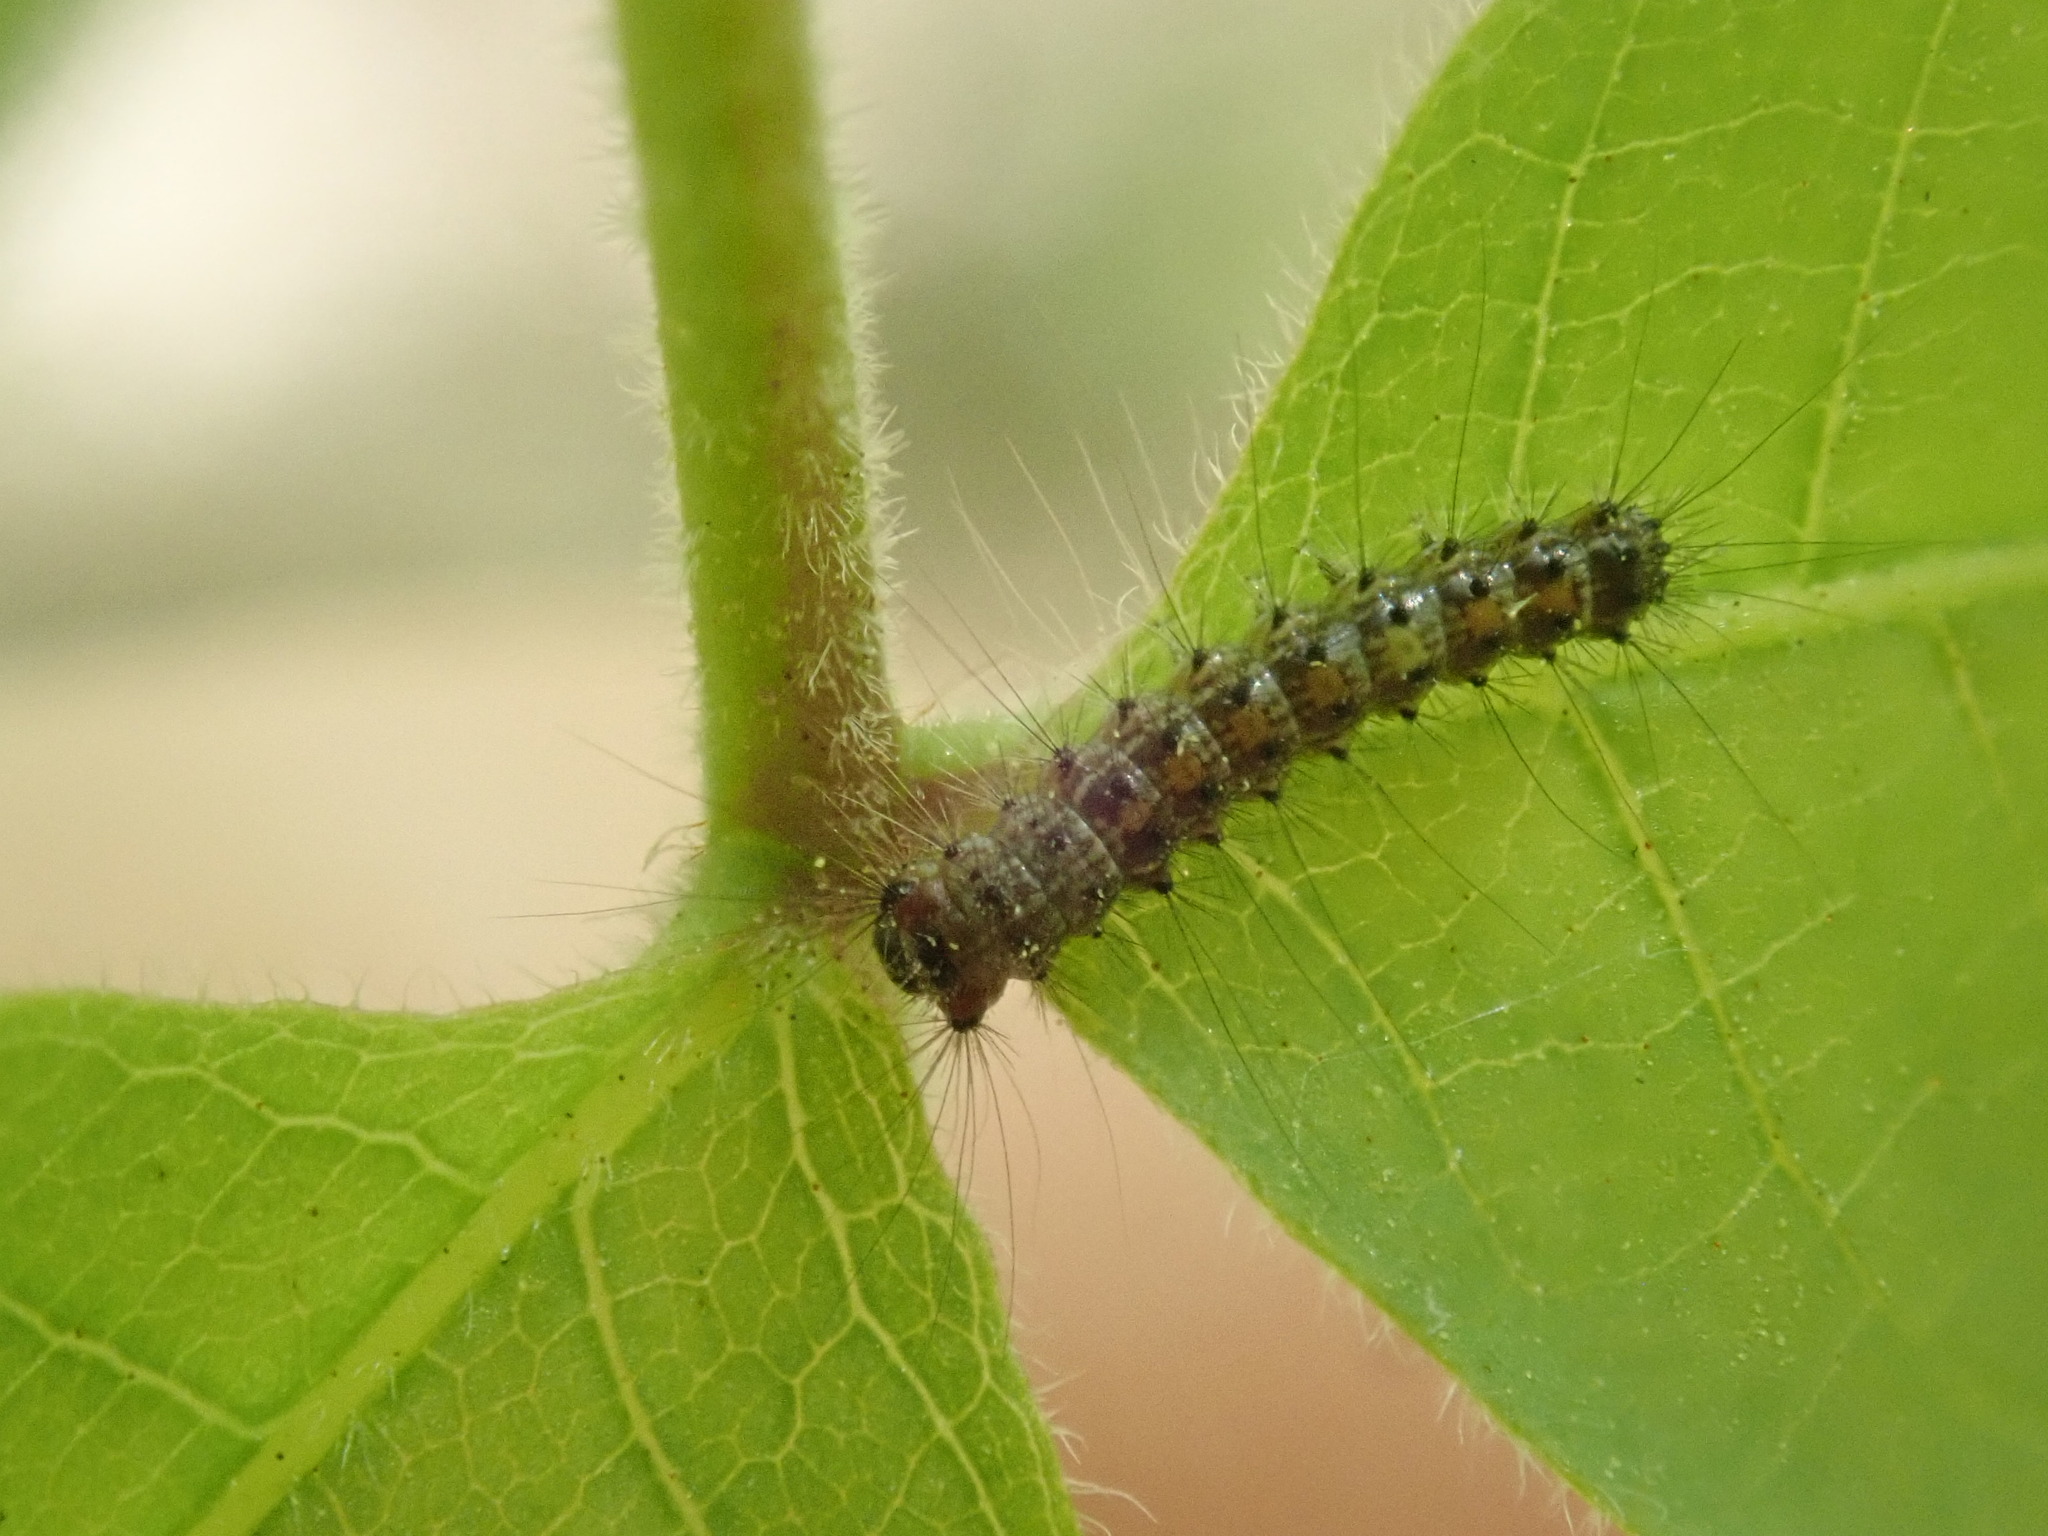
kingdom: Animalia
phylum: Arthropoda
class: Insecta
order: Lepidoptera
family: Erebidae
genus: Lymantria
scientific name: Lymantria dispar
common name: Gypsy moth
